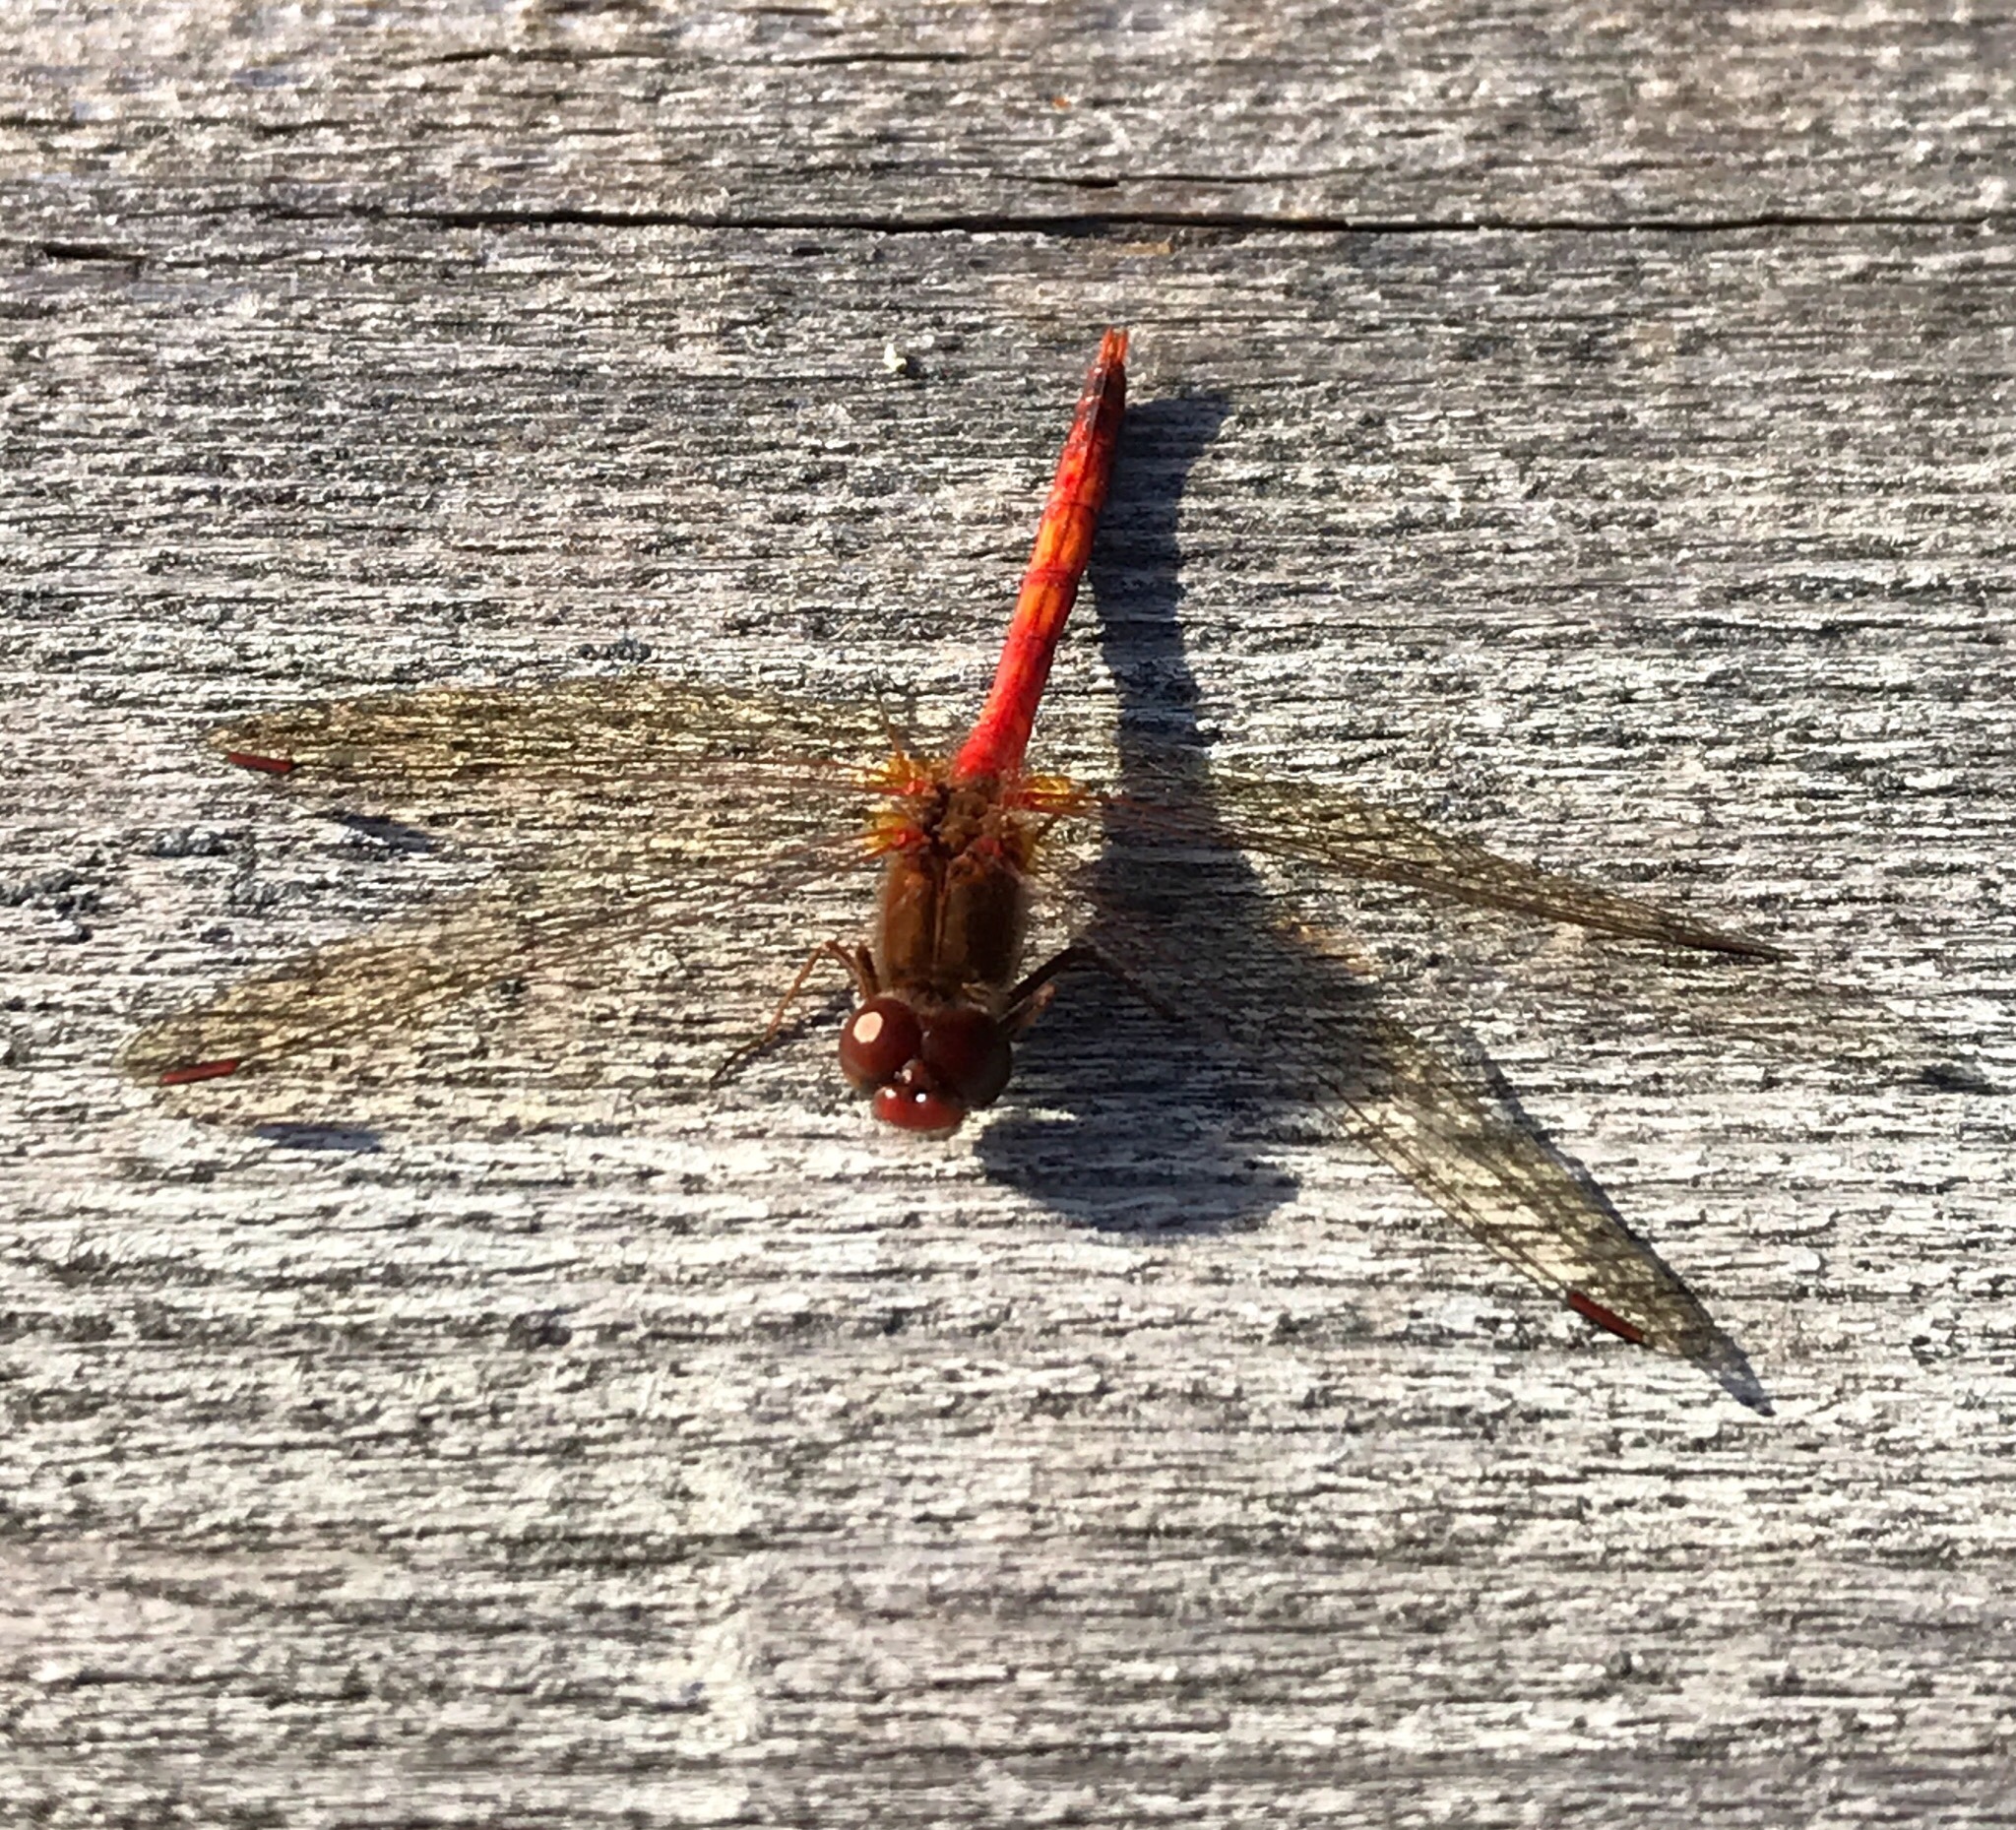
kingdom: Animalia
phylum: Arthropoda
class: Insecta
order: Odonata
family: Libellulidae
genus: Sympetrum
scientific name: Sympetrum vicinum
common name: Autumn meadowhawk
